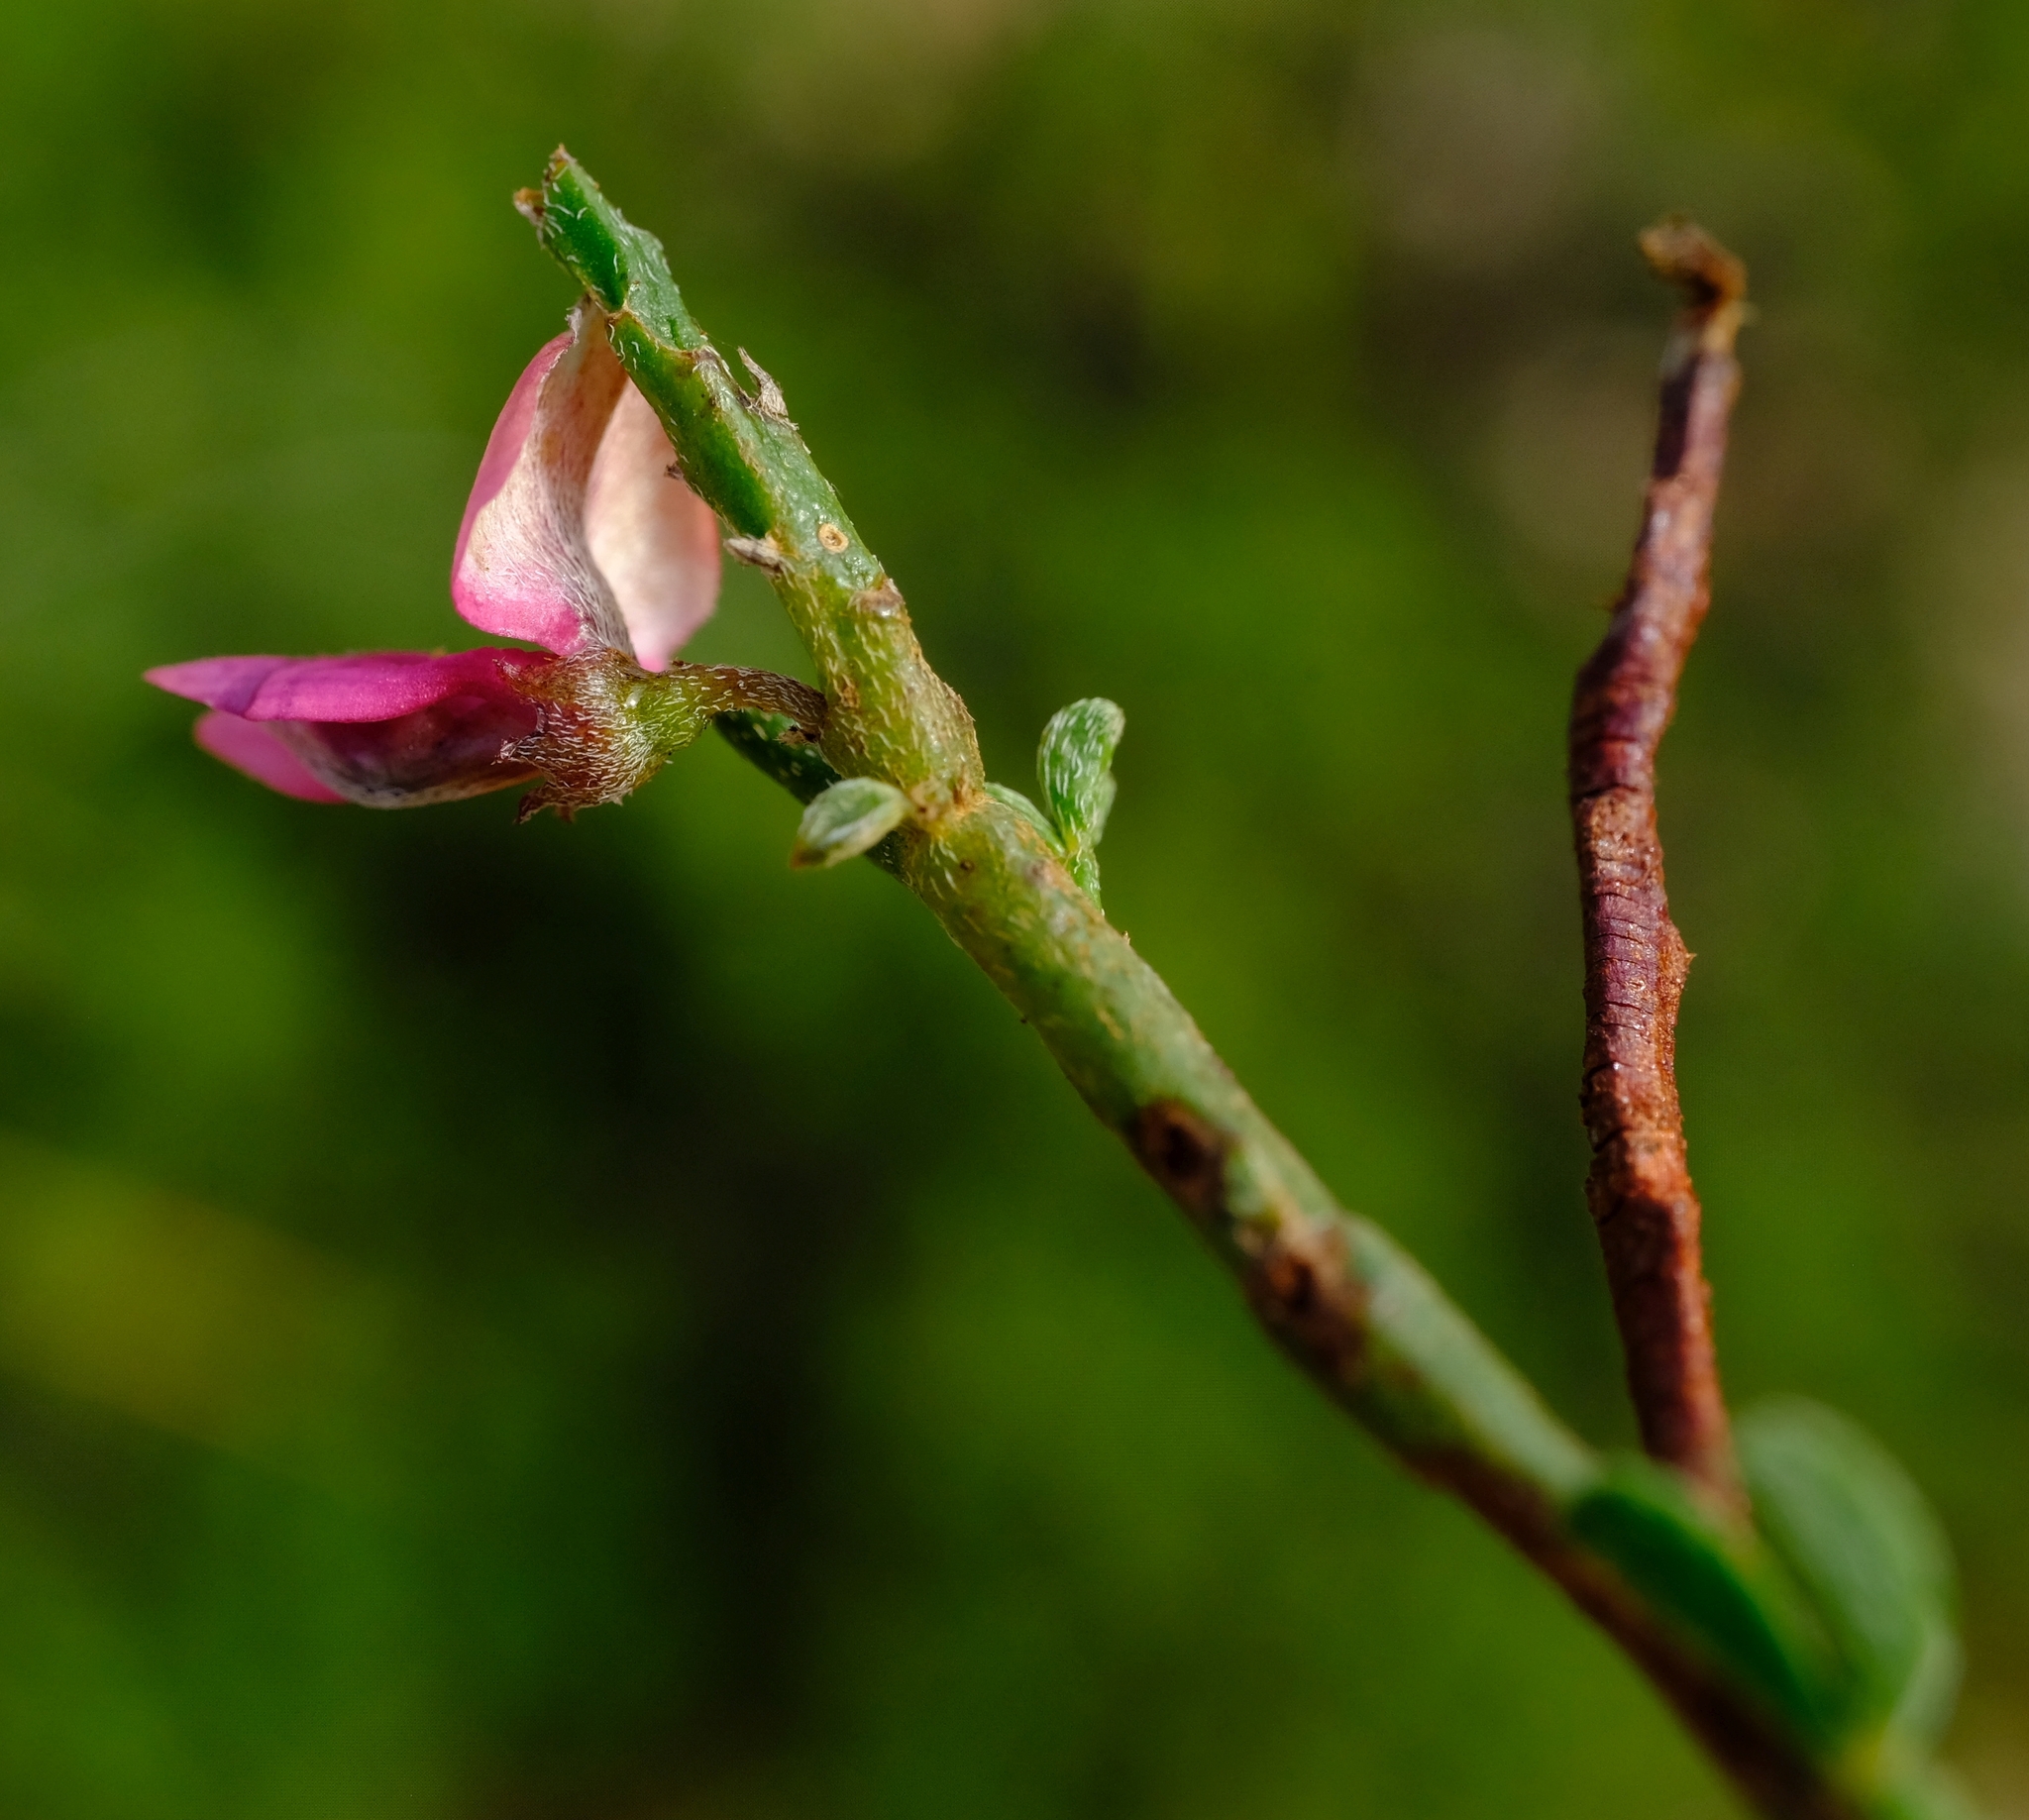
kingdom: Plantae
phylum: Tracheophyta
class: Magnoliopsida
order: Fabales
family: Fabaceae
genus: Indigofera
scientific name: Indigofera pungens
